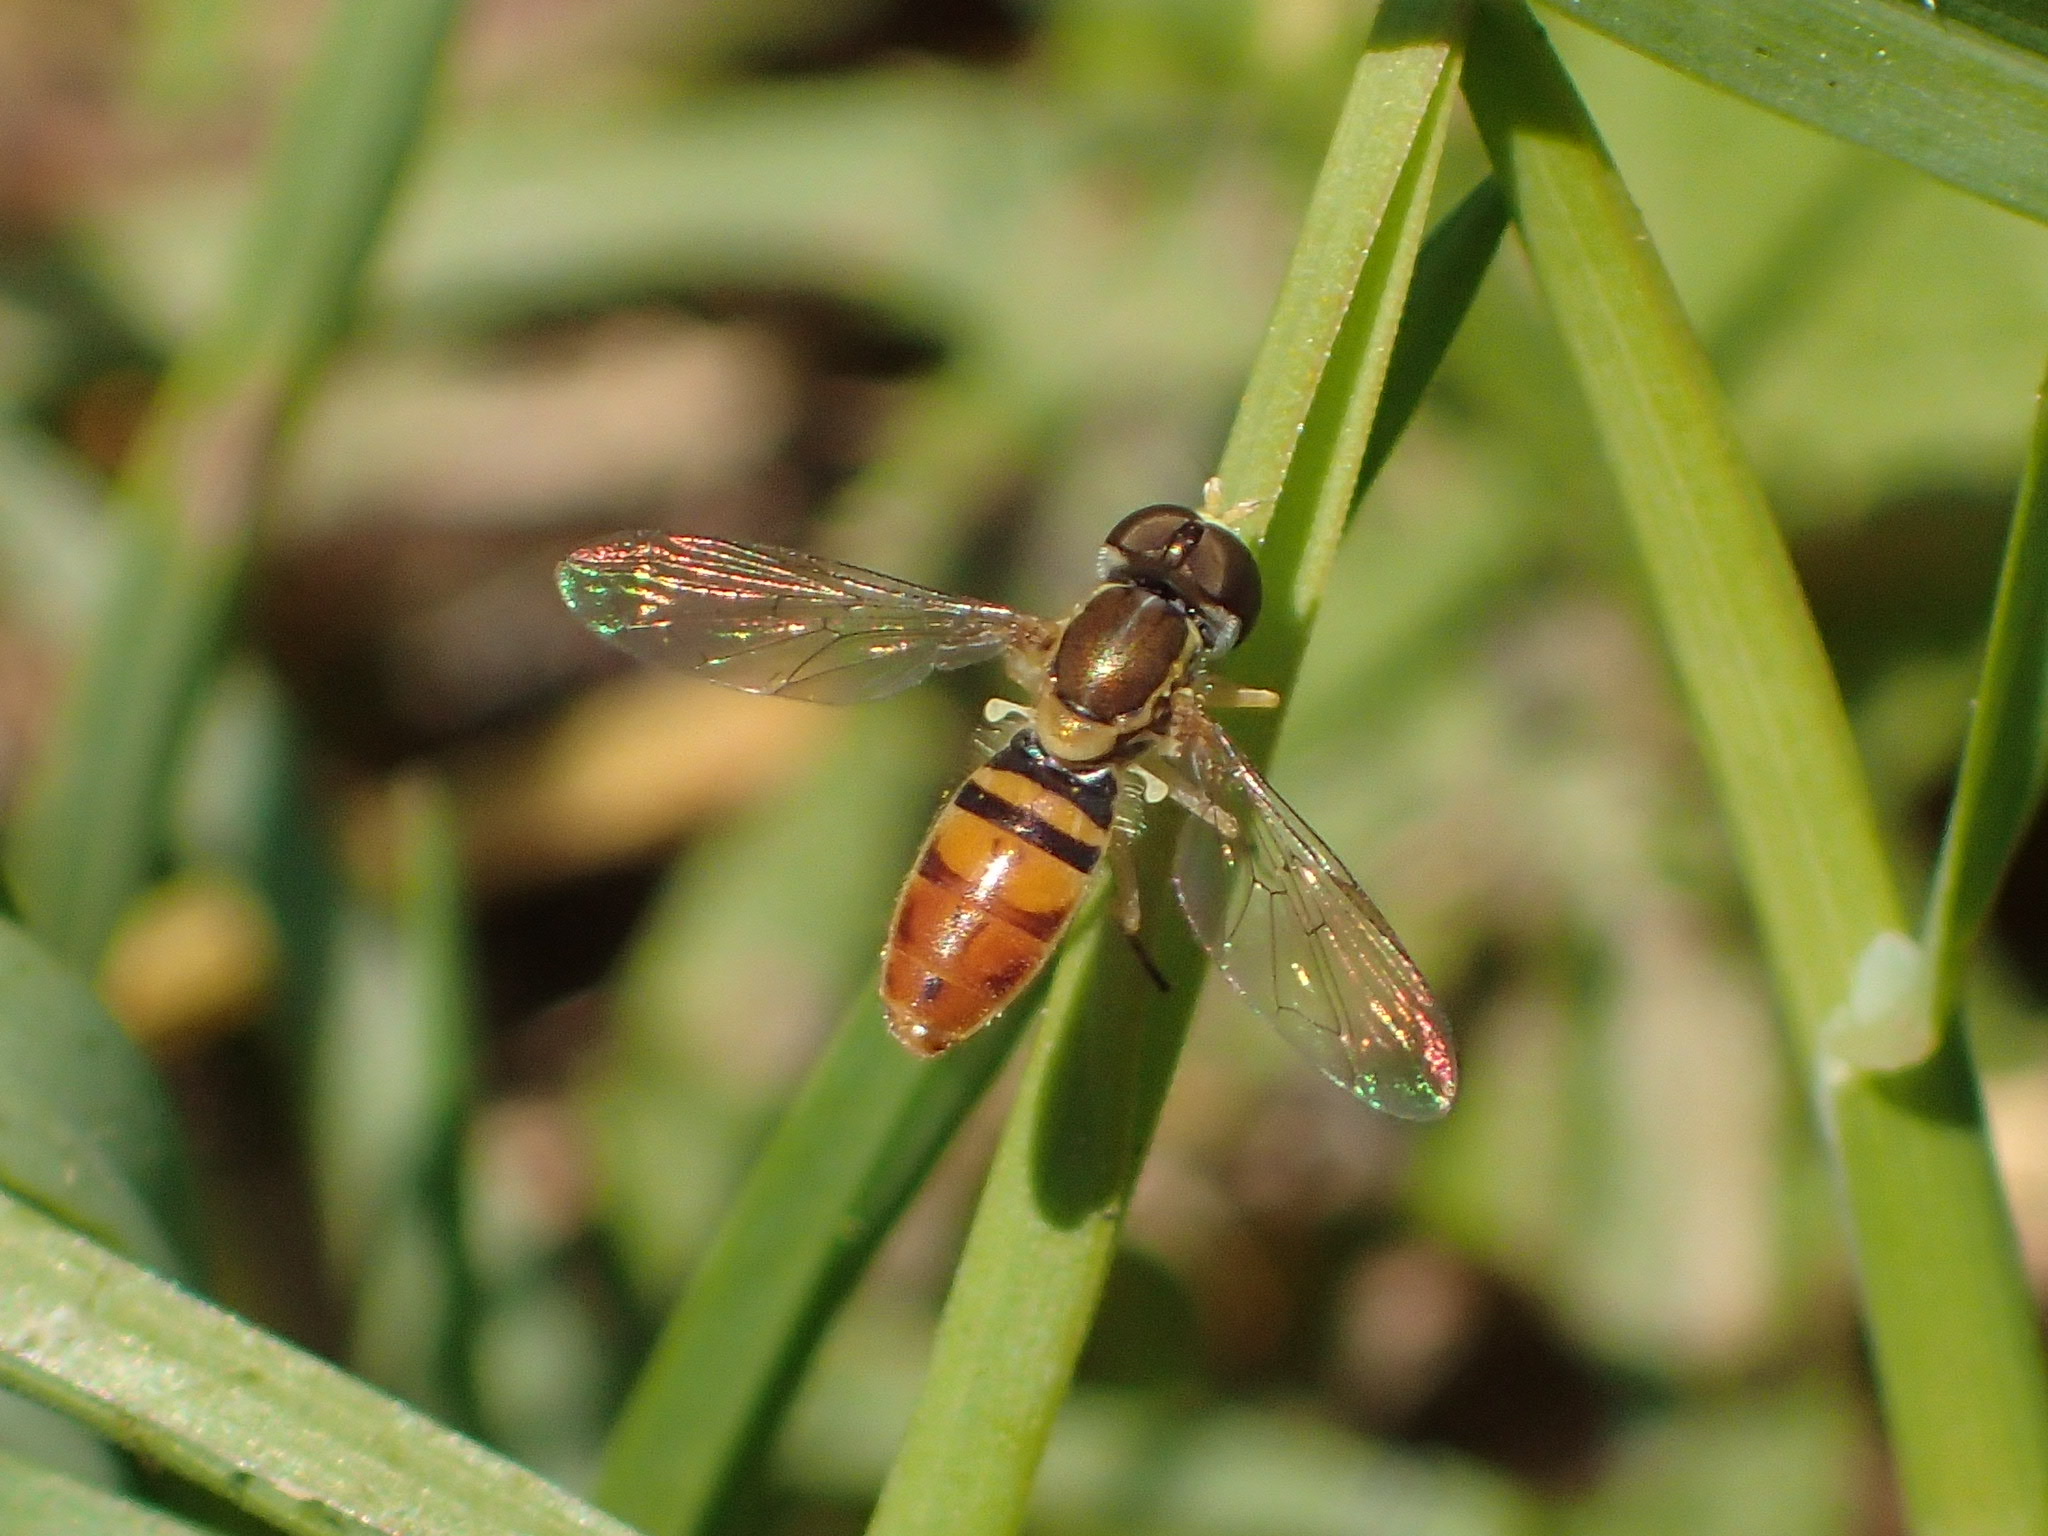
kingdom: Animalia
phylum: Arthropoda
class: Insecta
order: Diptera
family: Syrphidae
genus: Toxomerus
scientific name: Toxomerus marginatus
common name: Syrphid fly
